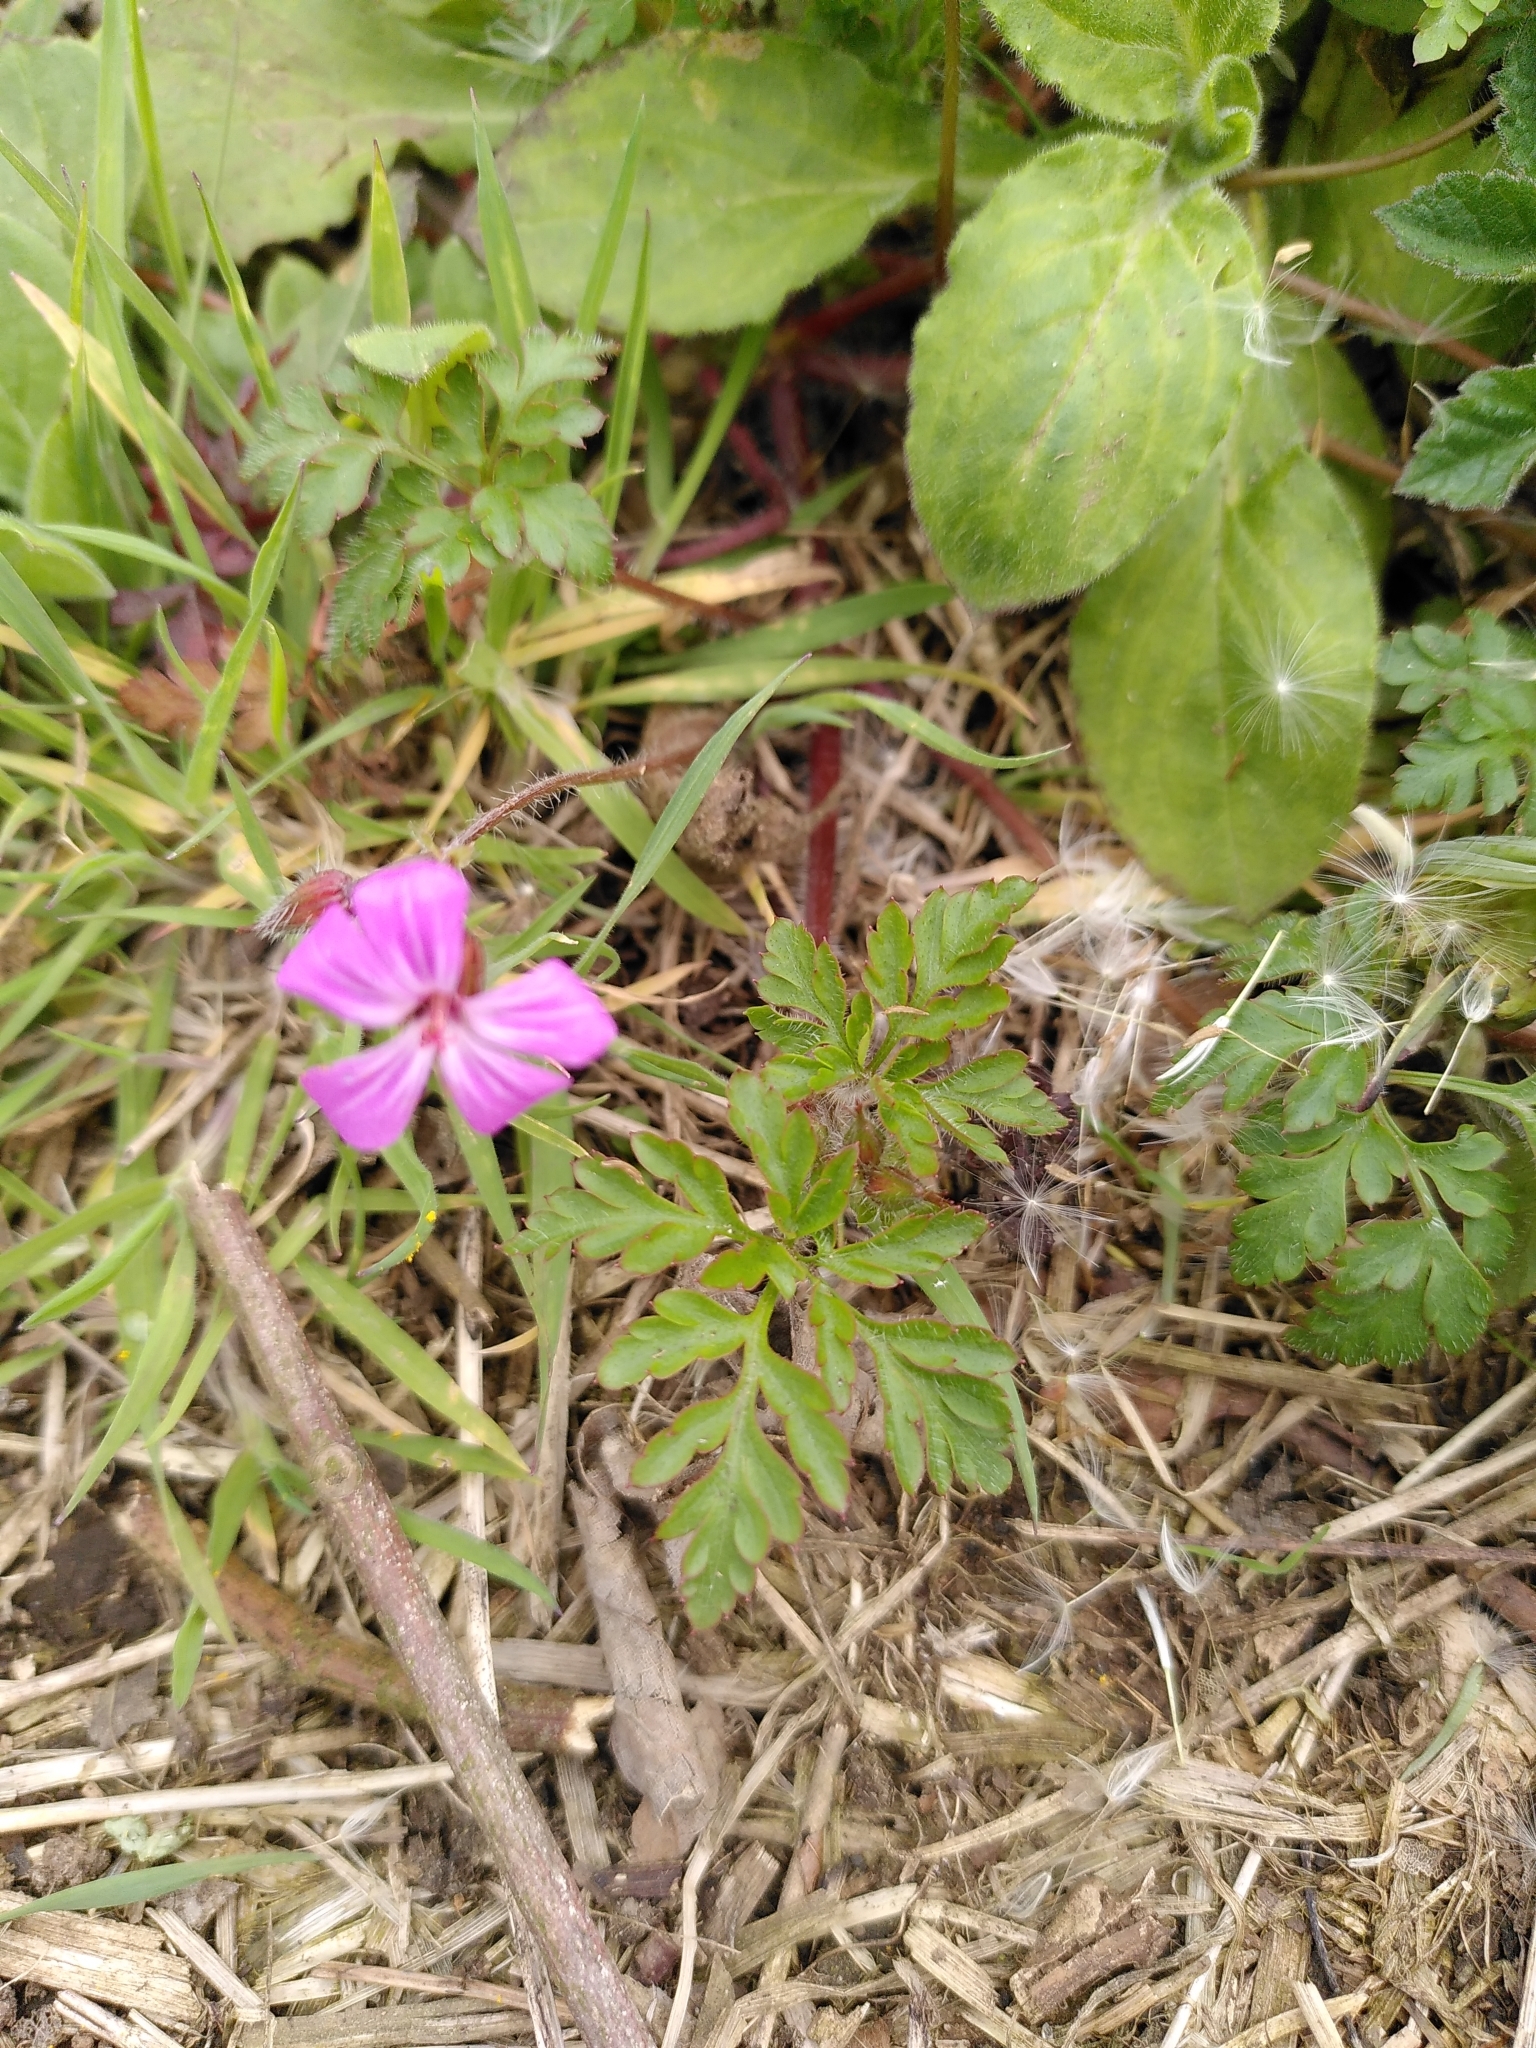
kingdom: Plantae
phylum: Tracheophyta
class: Magnoliopsida
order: Geraniales
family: Geraniaceae
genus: Geranium
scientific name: Geranium robertianum
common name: Herb-robert
